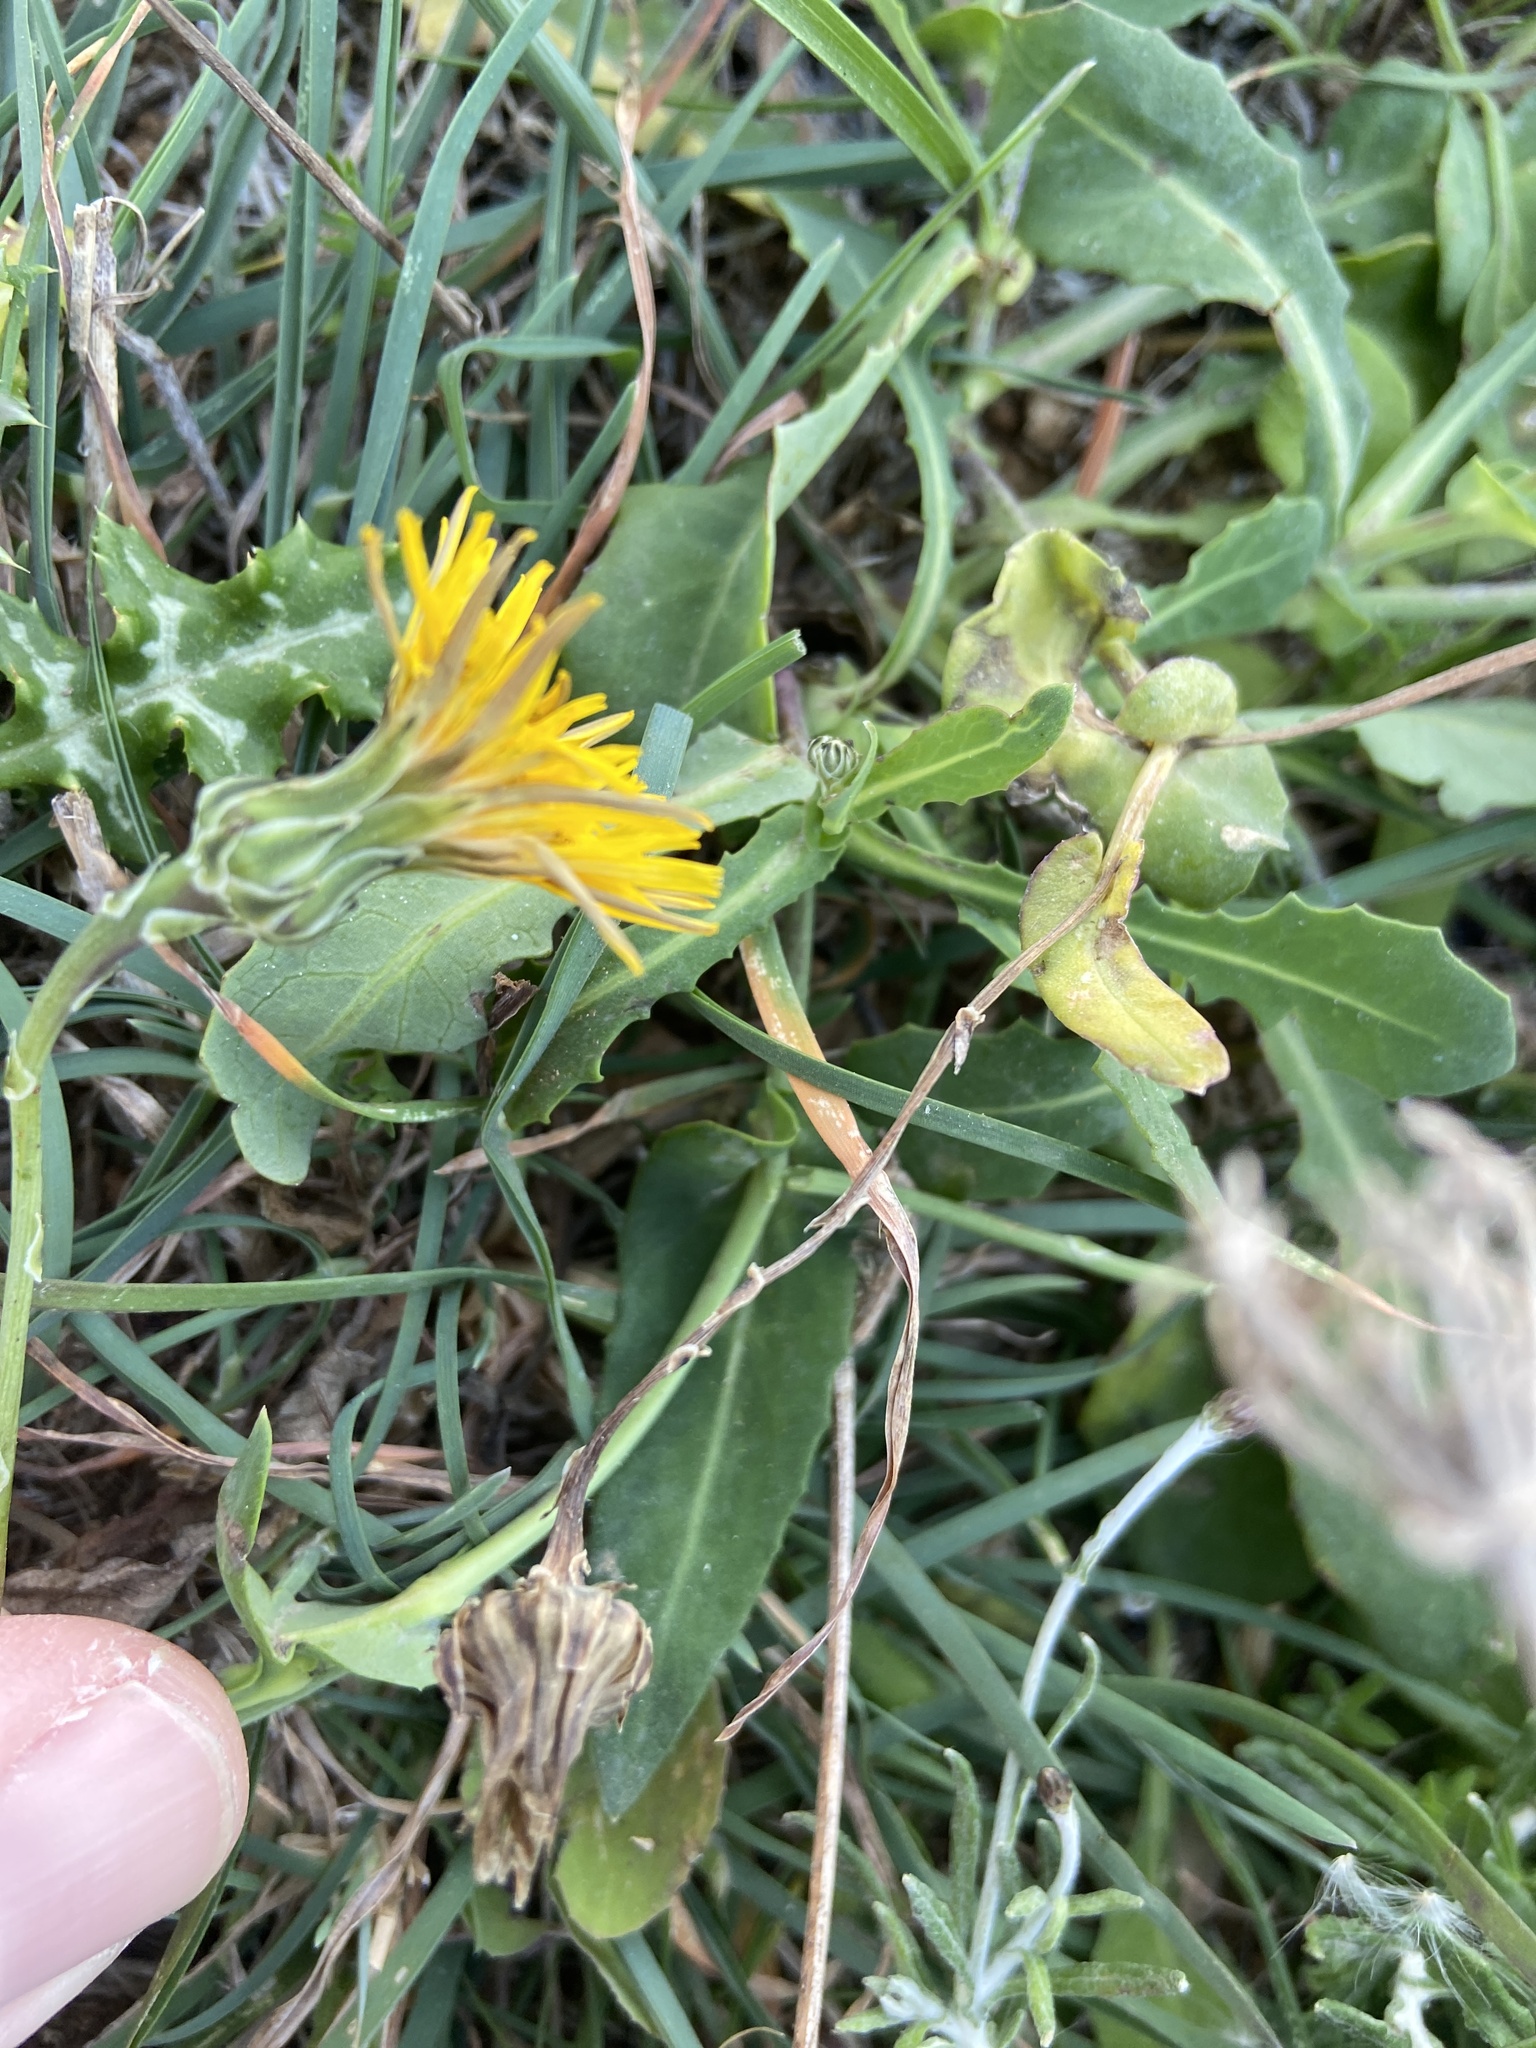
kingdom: Plantae
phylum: Tracheophyta
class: Magnoliopsida
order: Asterales
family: Asteraceae
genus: Reichardia
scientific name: Reichardia picroides
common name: Common brighteyes
